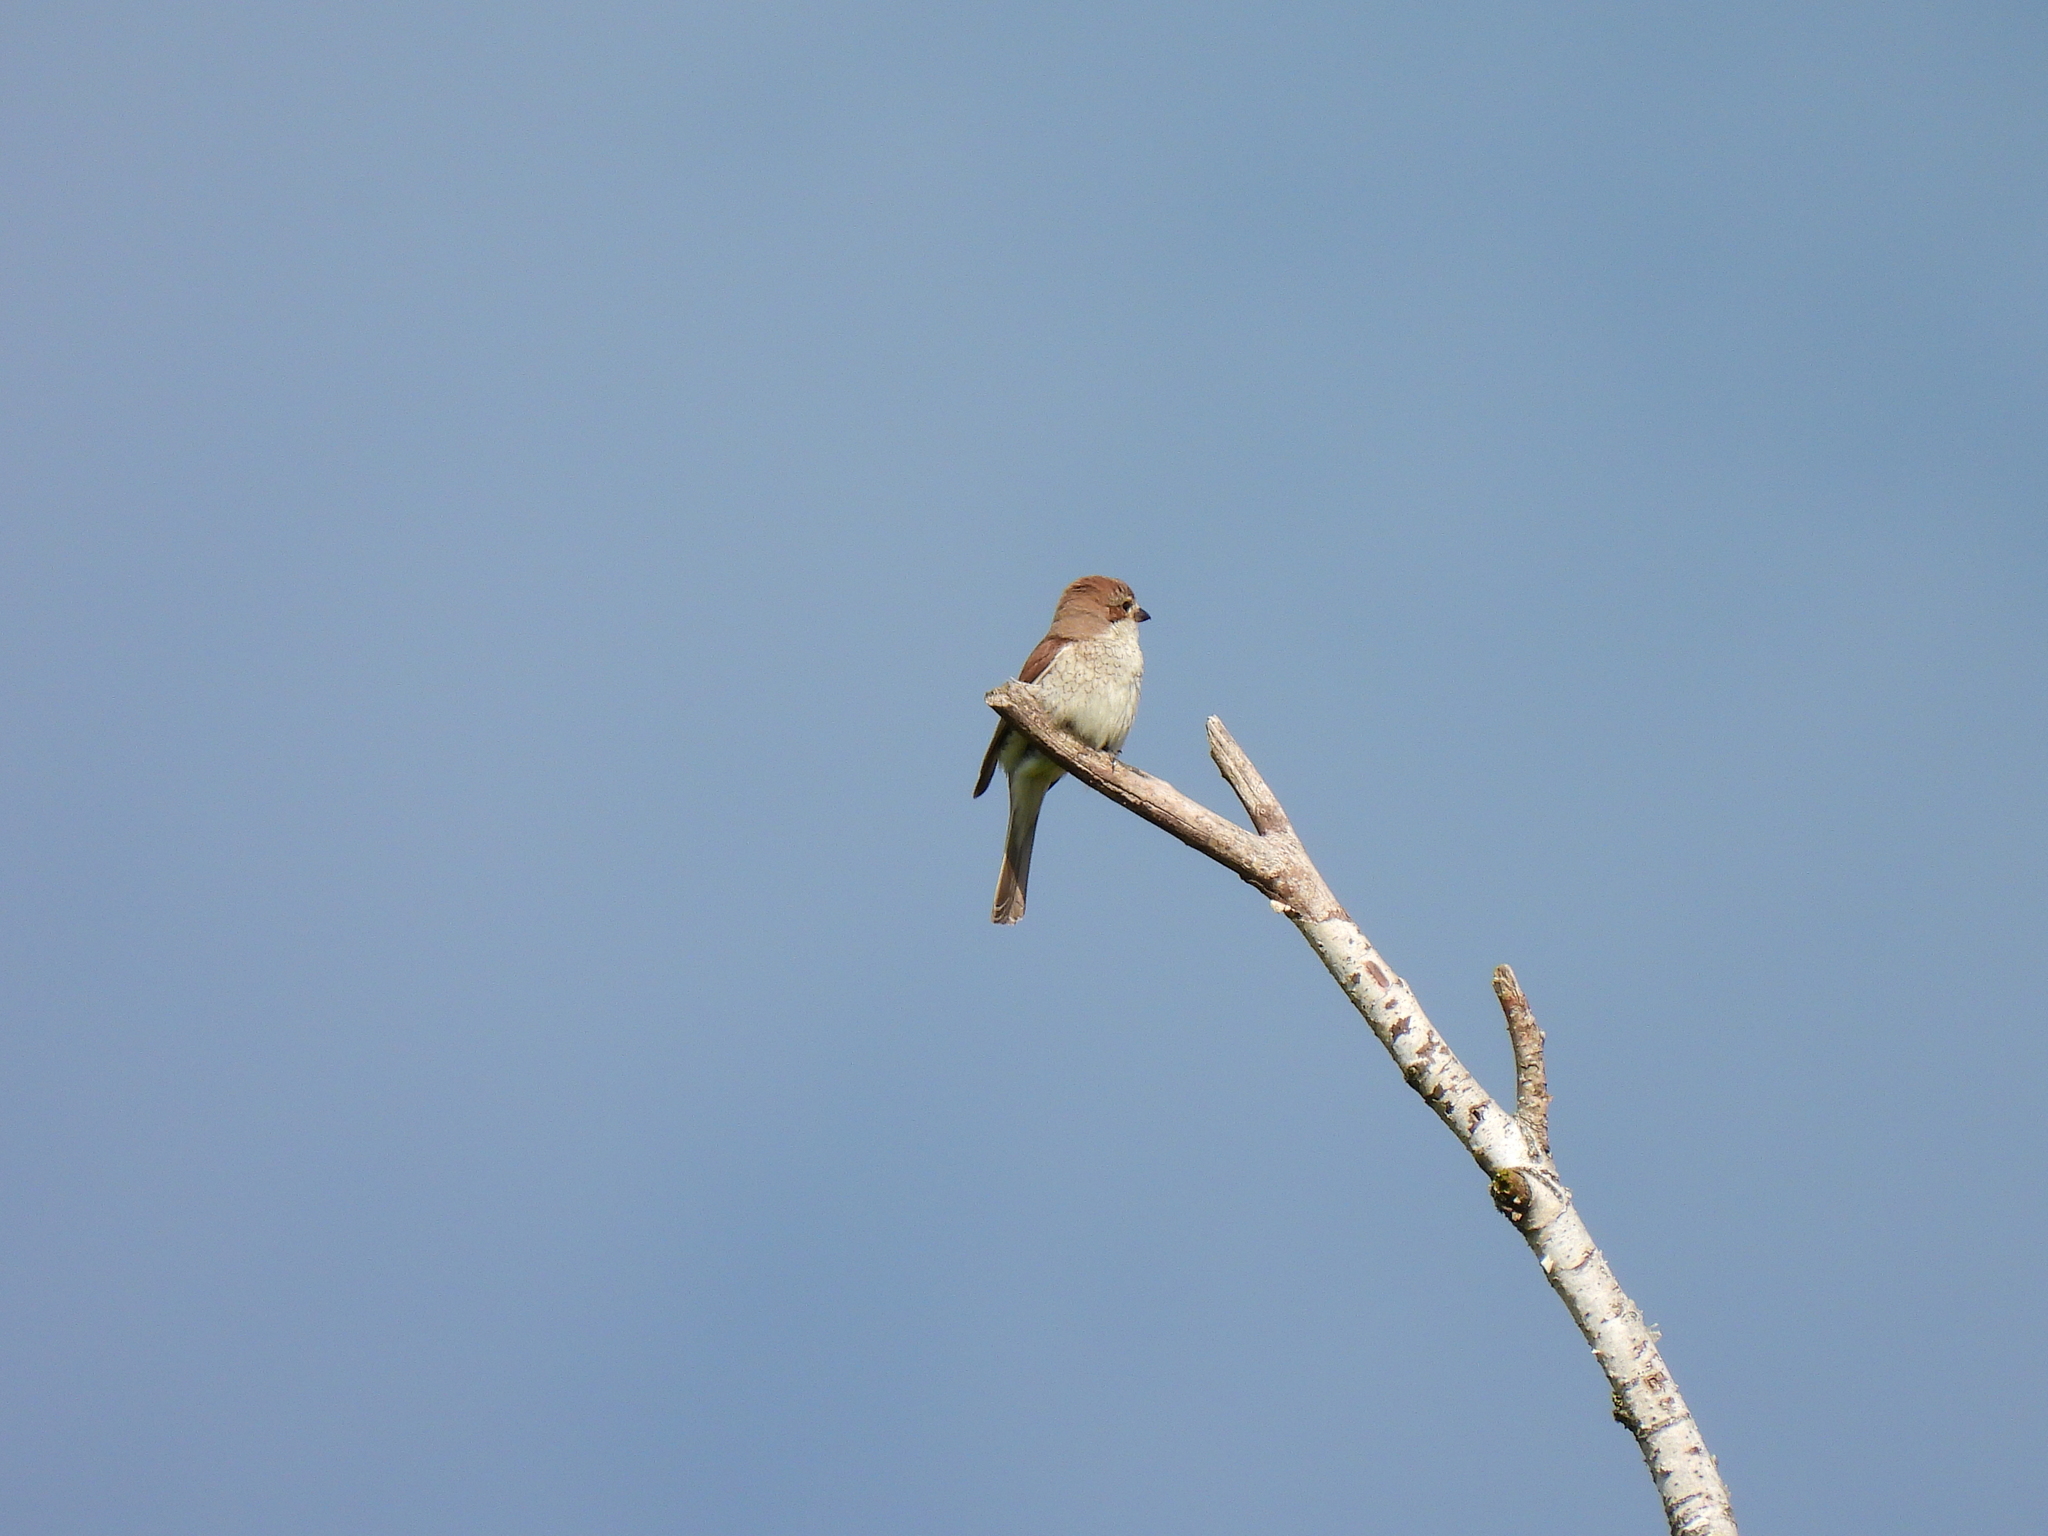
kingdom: Animalia
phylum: Chordata
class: Aves
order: Passeriformes
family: Laniidae
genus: Lanius
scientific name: Lanius collurio
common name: Red-backed shrike
